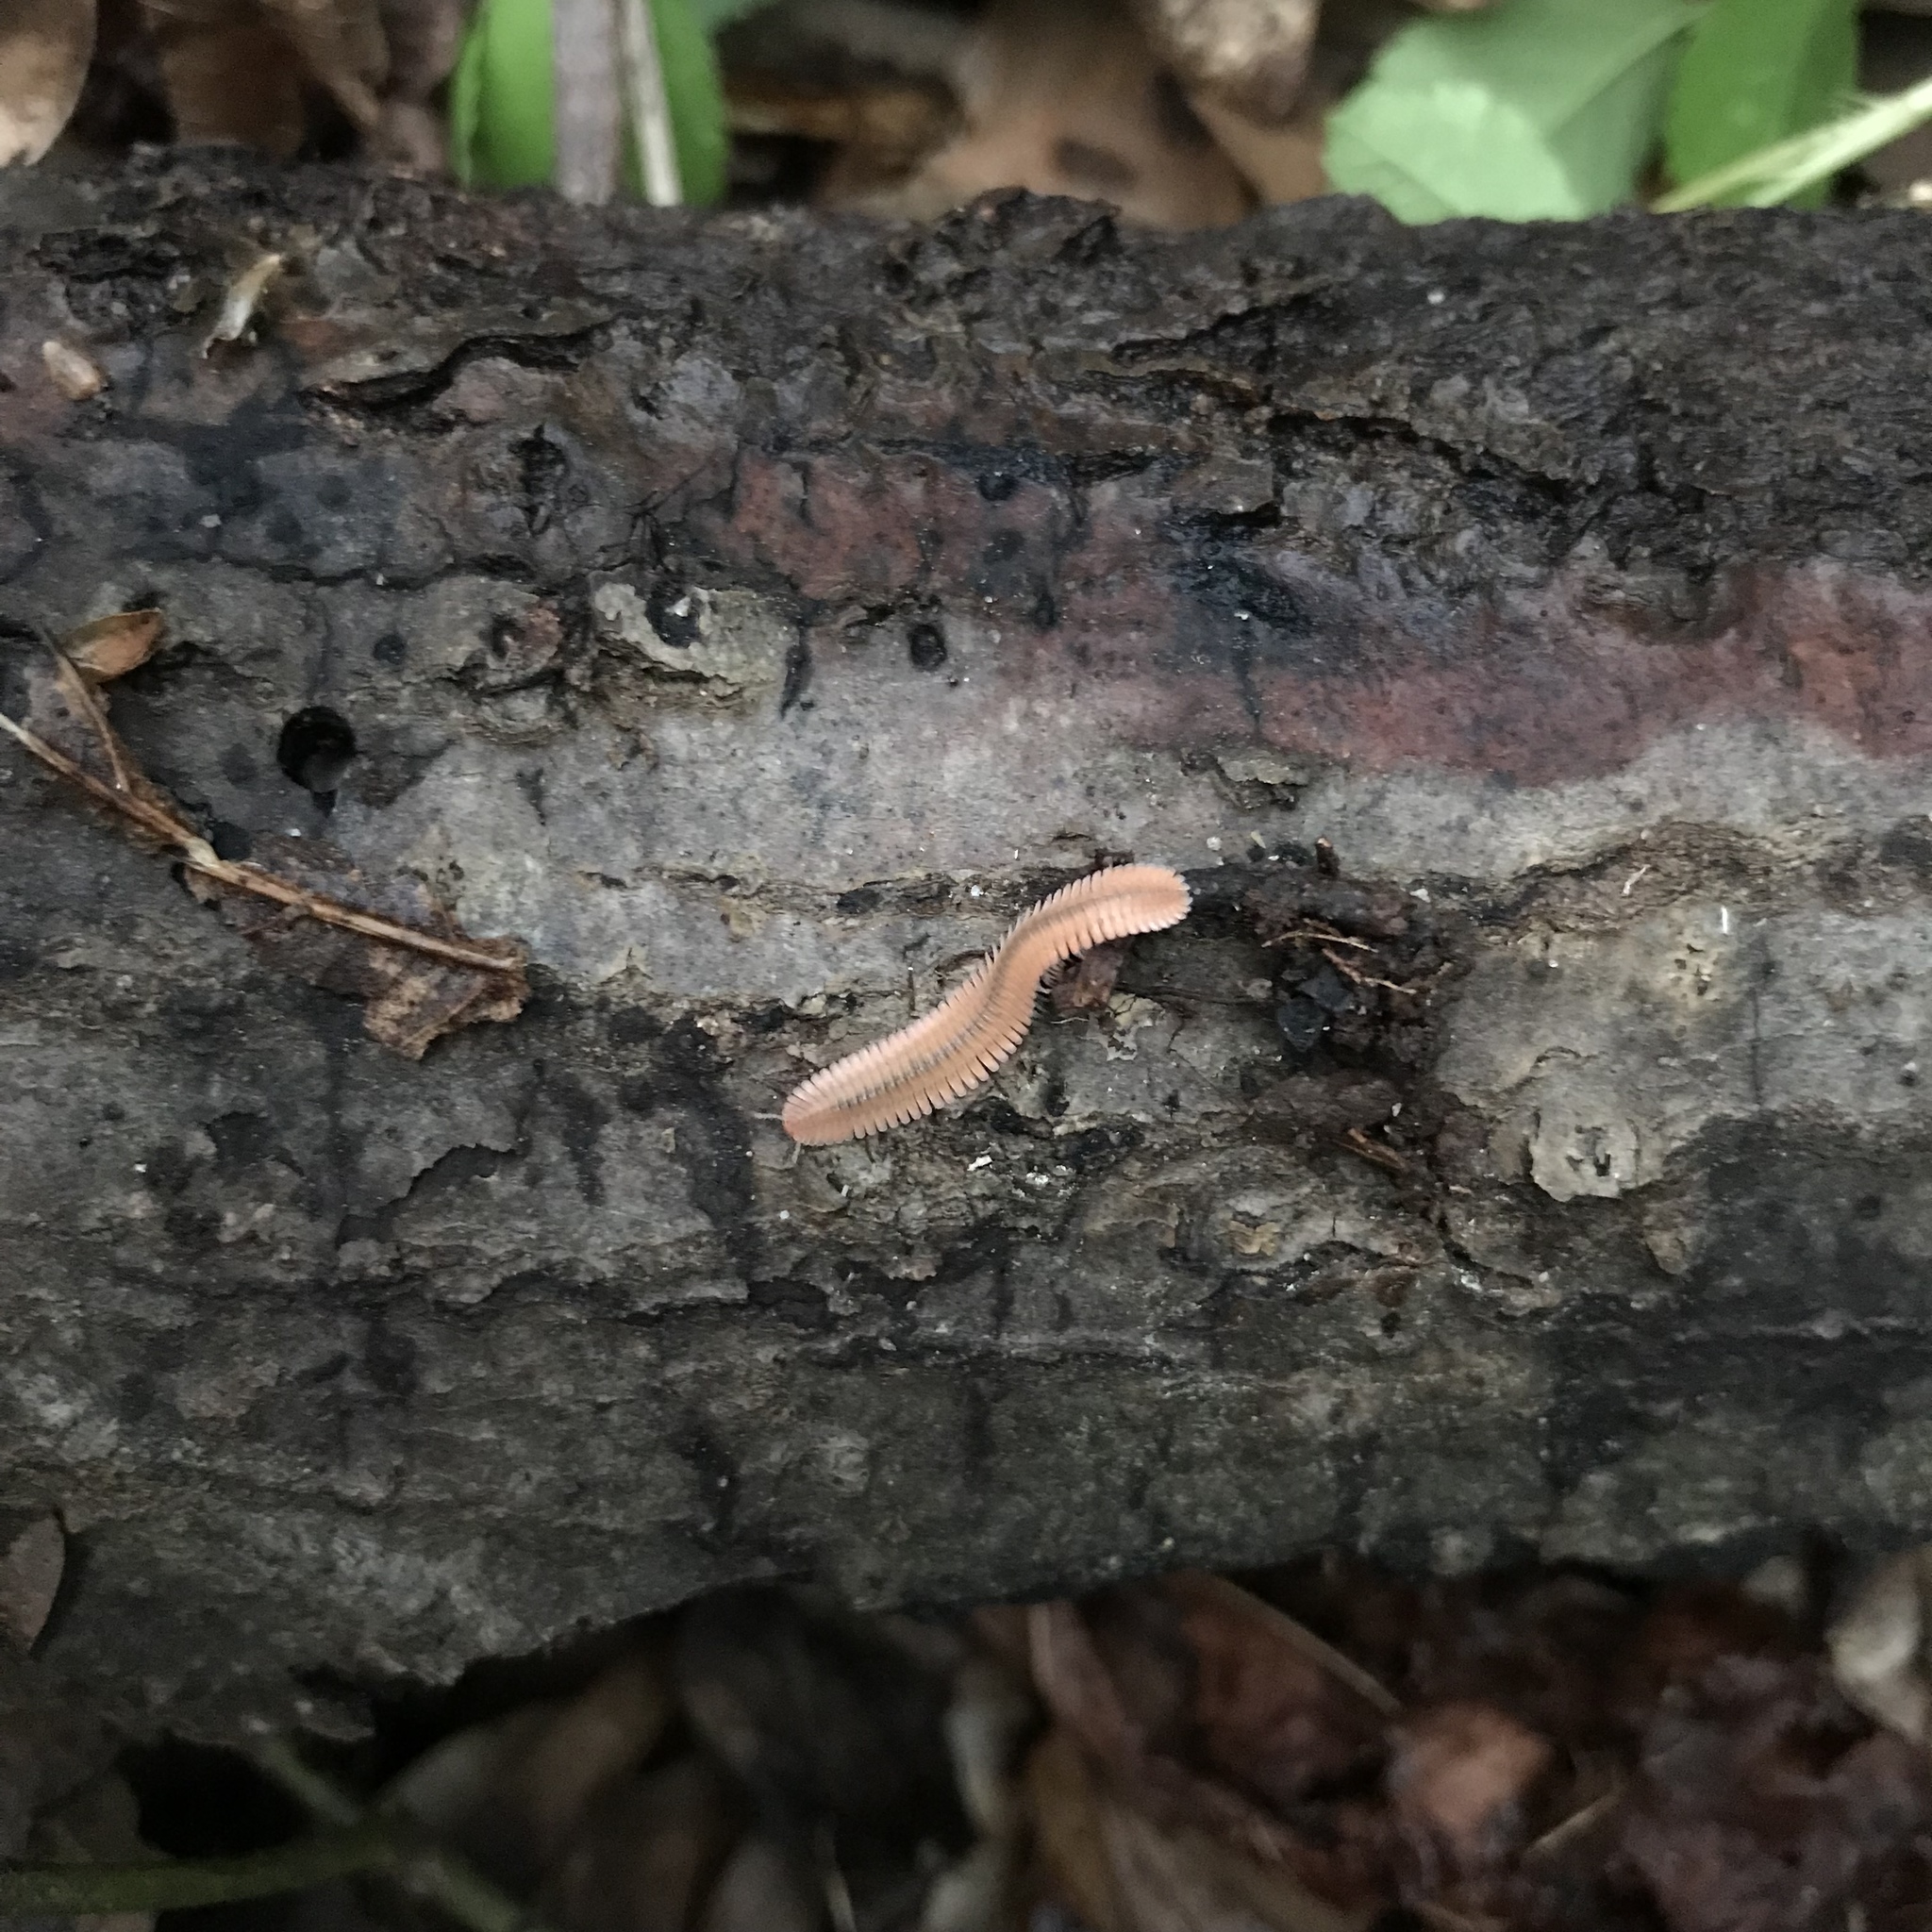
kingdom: Animalia
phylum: Arthropoda
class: Diplopoda
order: Platydesmida
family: Andrognathidae
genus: Brachycybe
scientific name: Brachycybe lecontii
